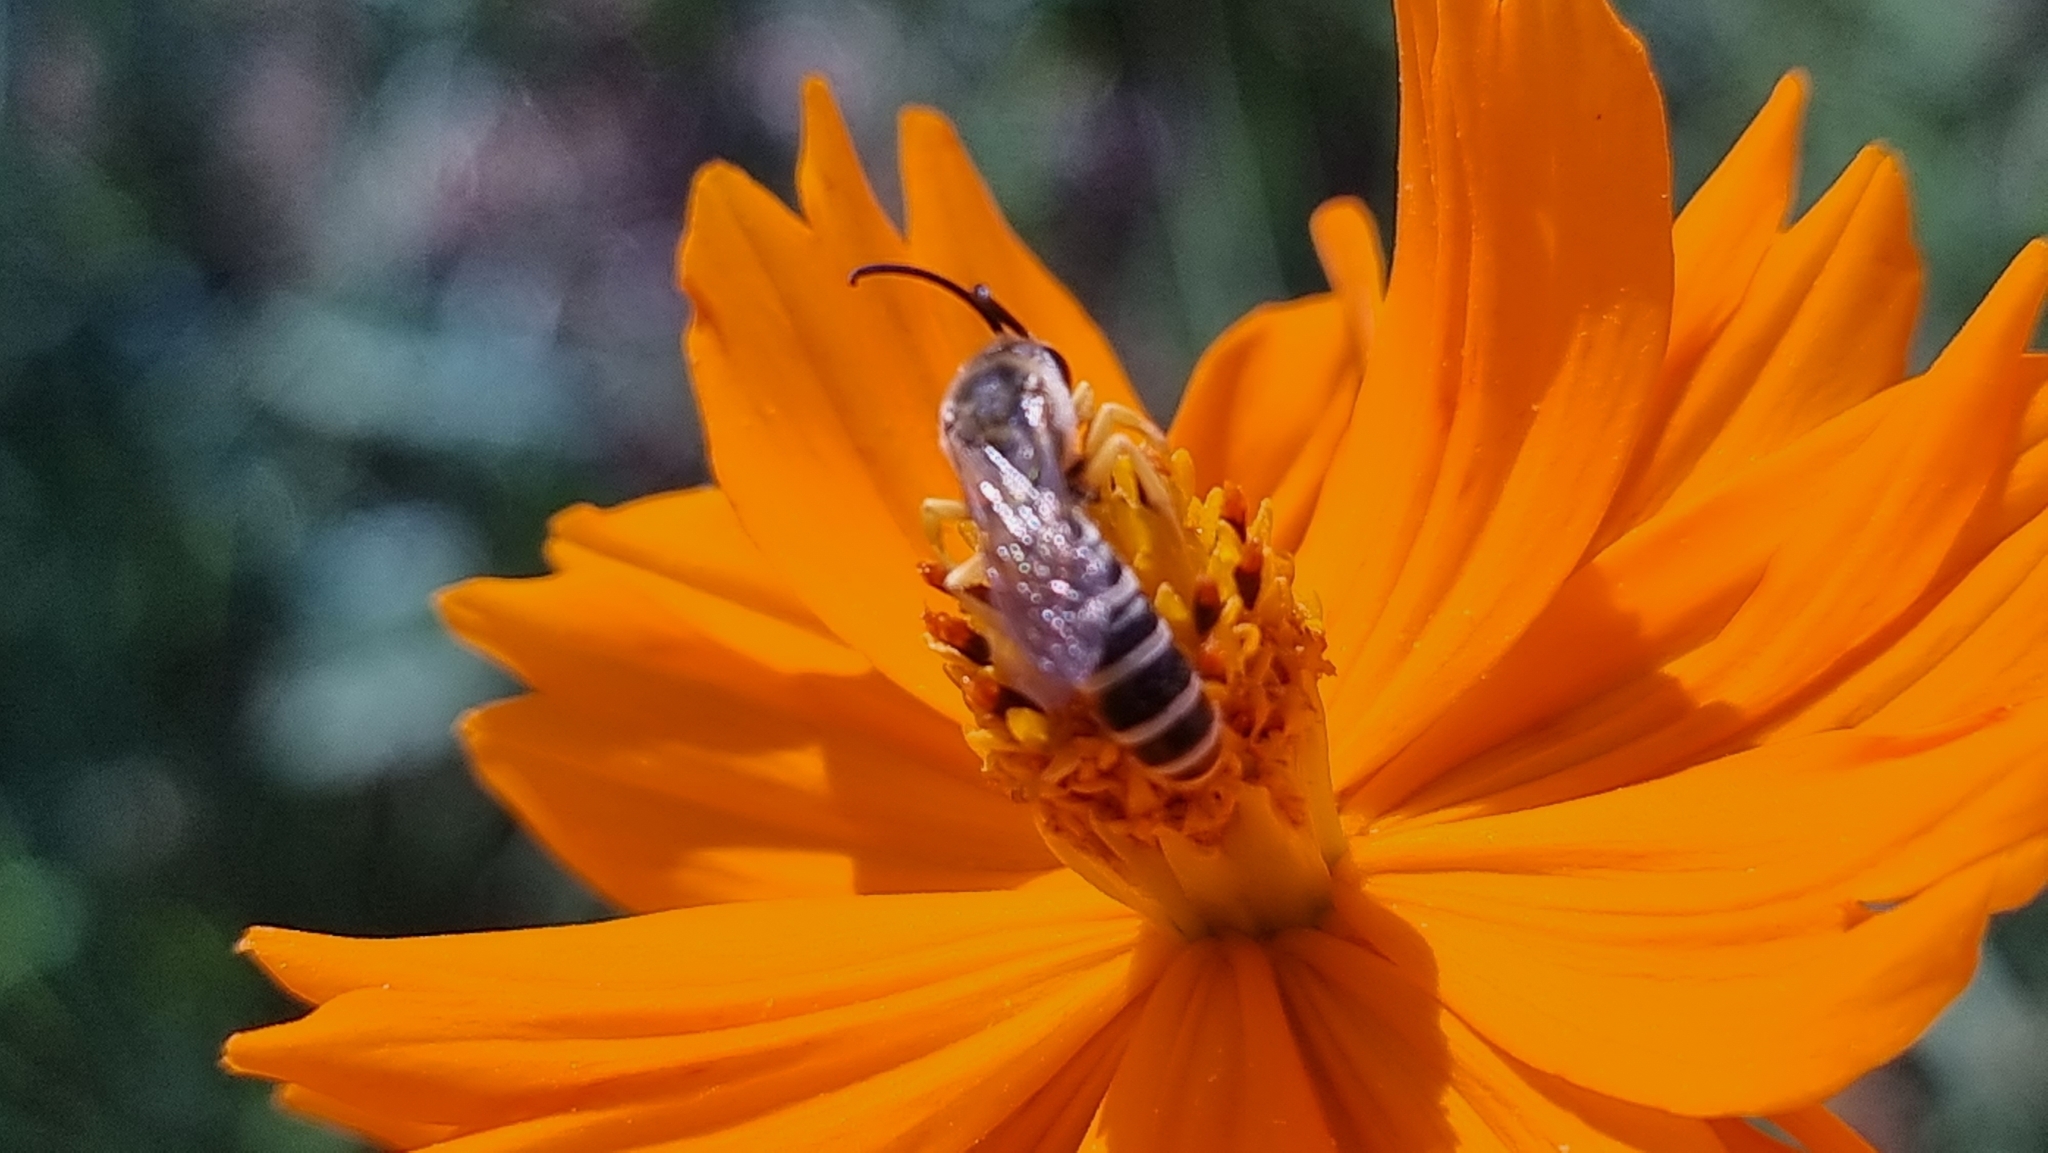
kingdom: Animalia
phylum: Arthropoda
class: Insecta
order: Hymenoptera
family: Halictidae
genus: Halictus
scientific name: Halictus scabiosae
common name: Great banded furrow bee
